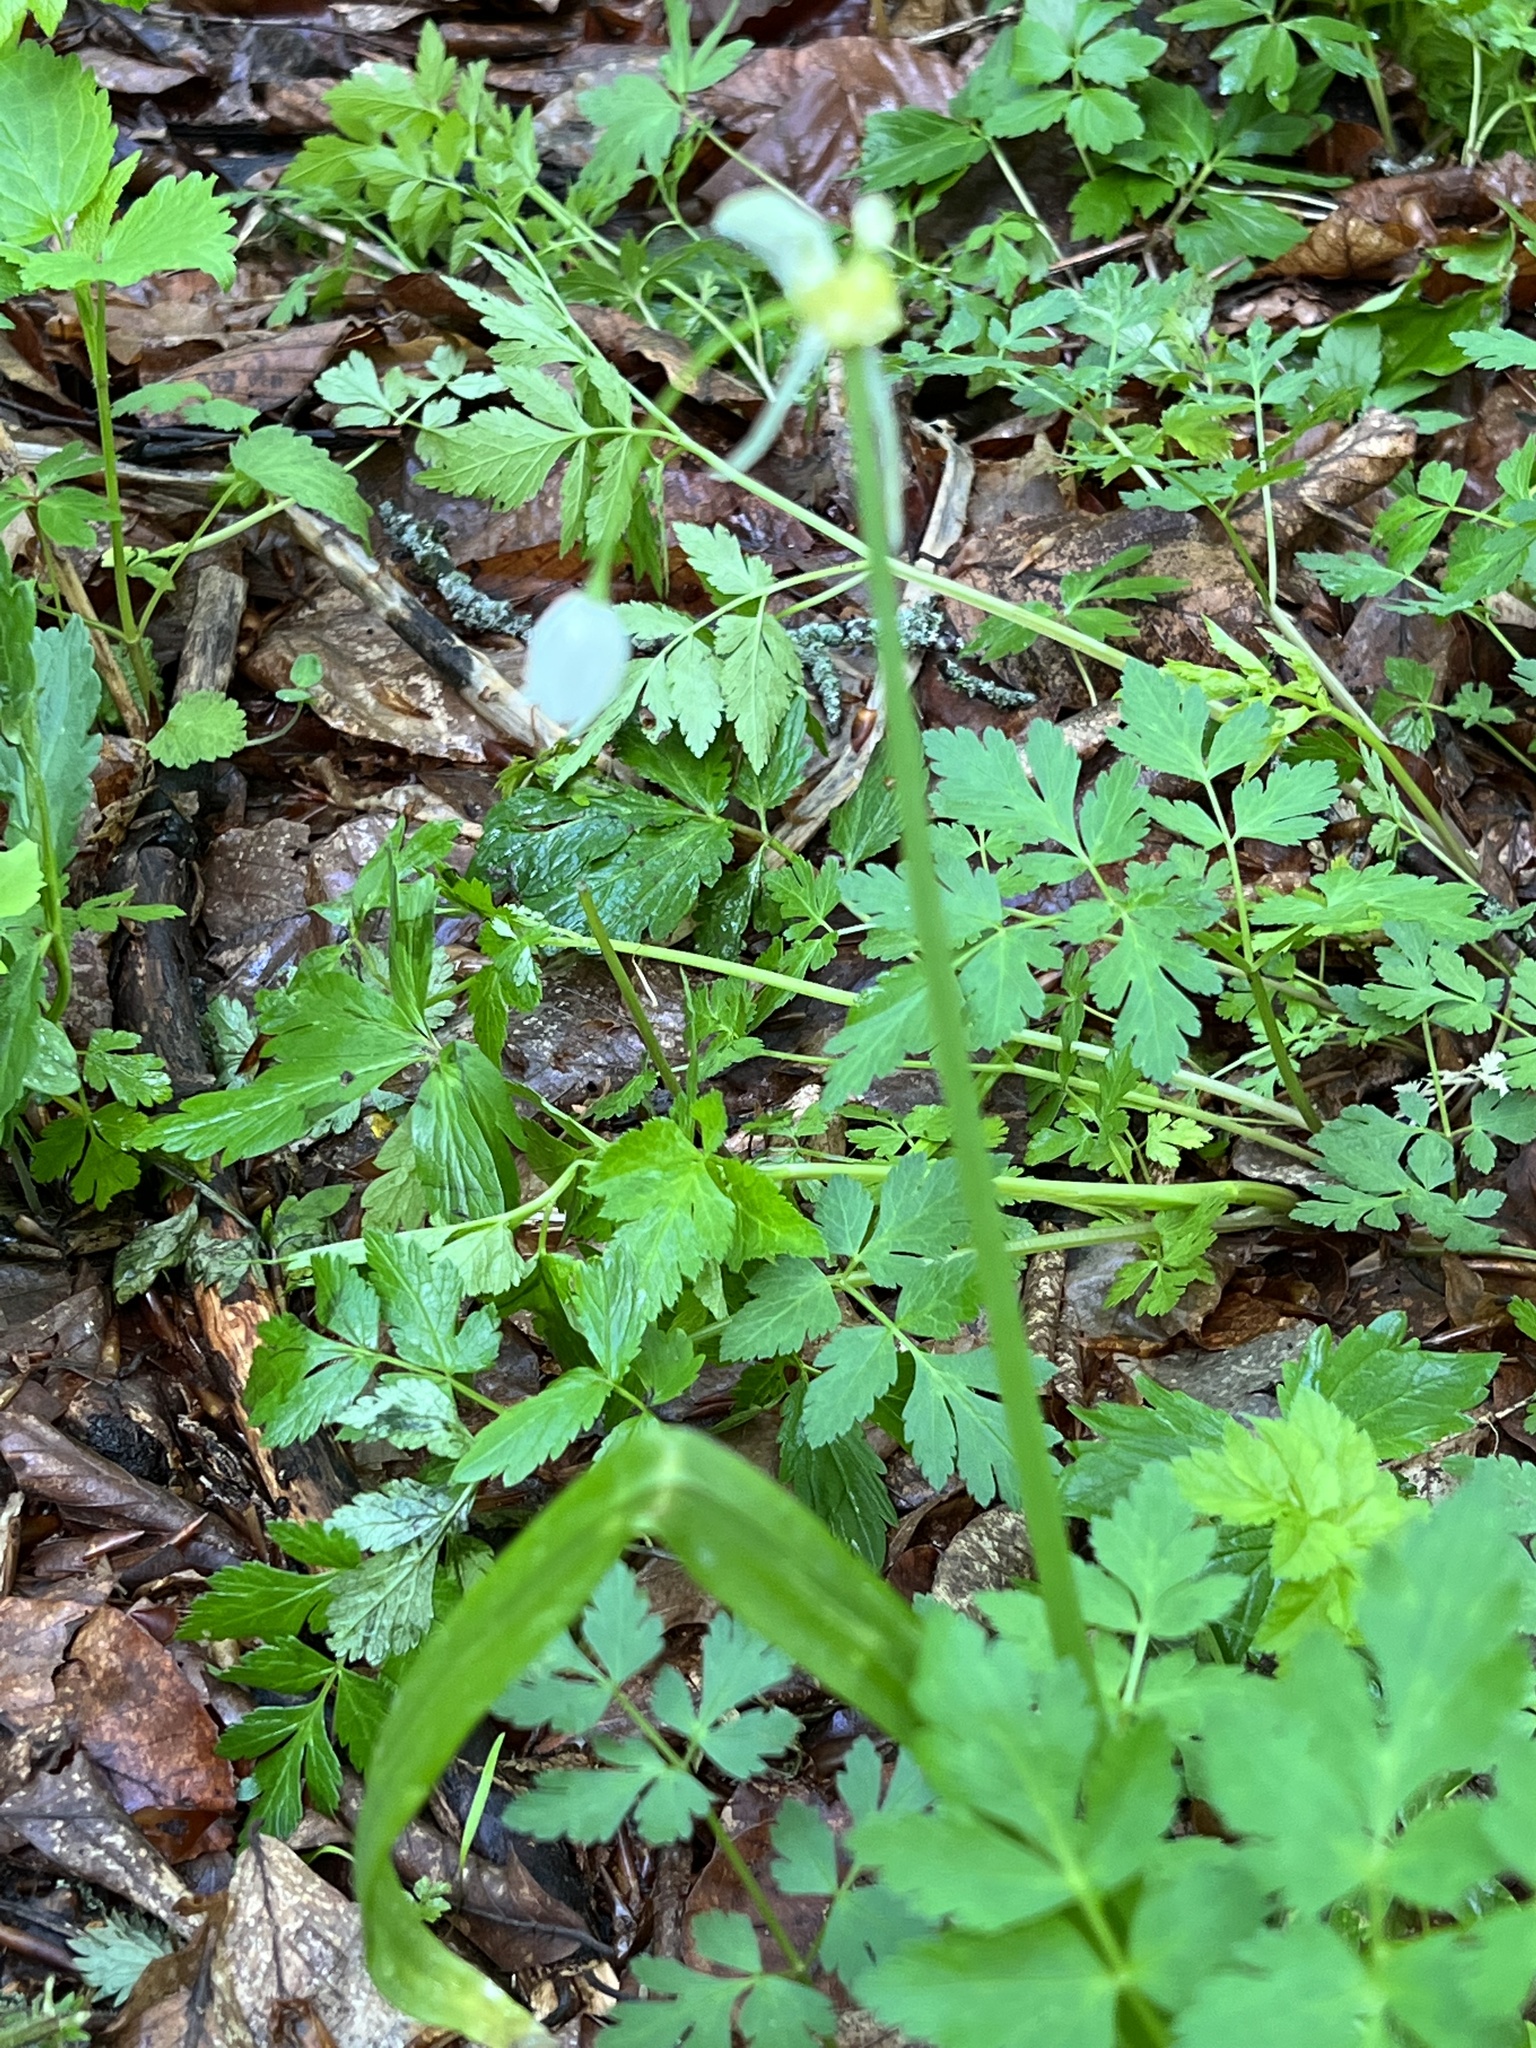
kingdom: Plantae
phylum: Tracheophyta
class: Liliopsida
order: Asparagales
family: Amaryllidaceae
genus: Allium
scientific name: Allium paradoxum
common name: Few-flowered garlic
